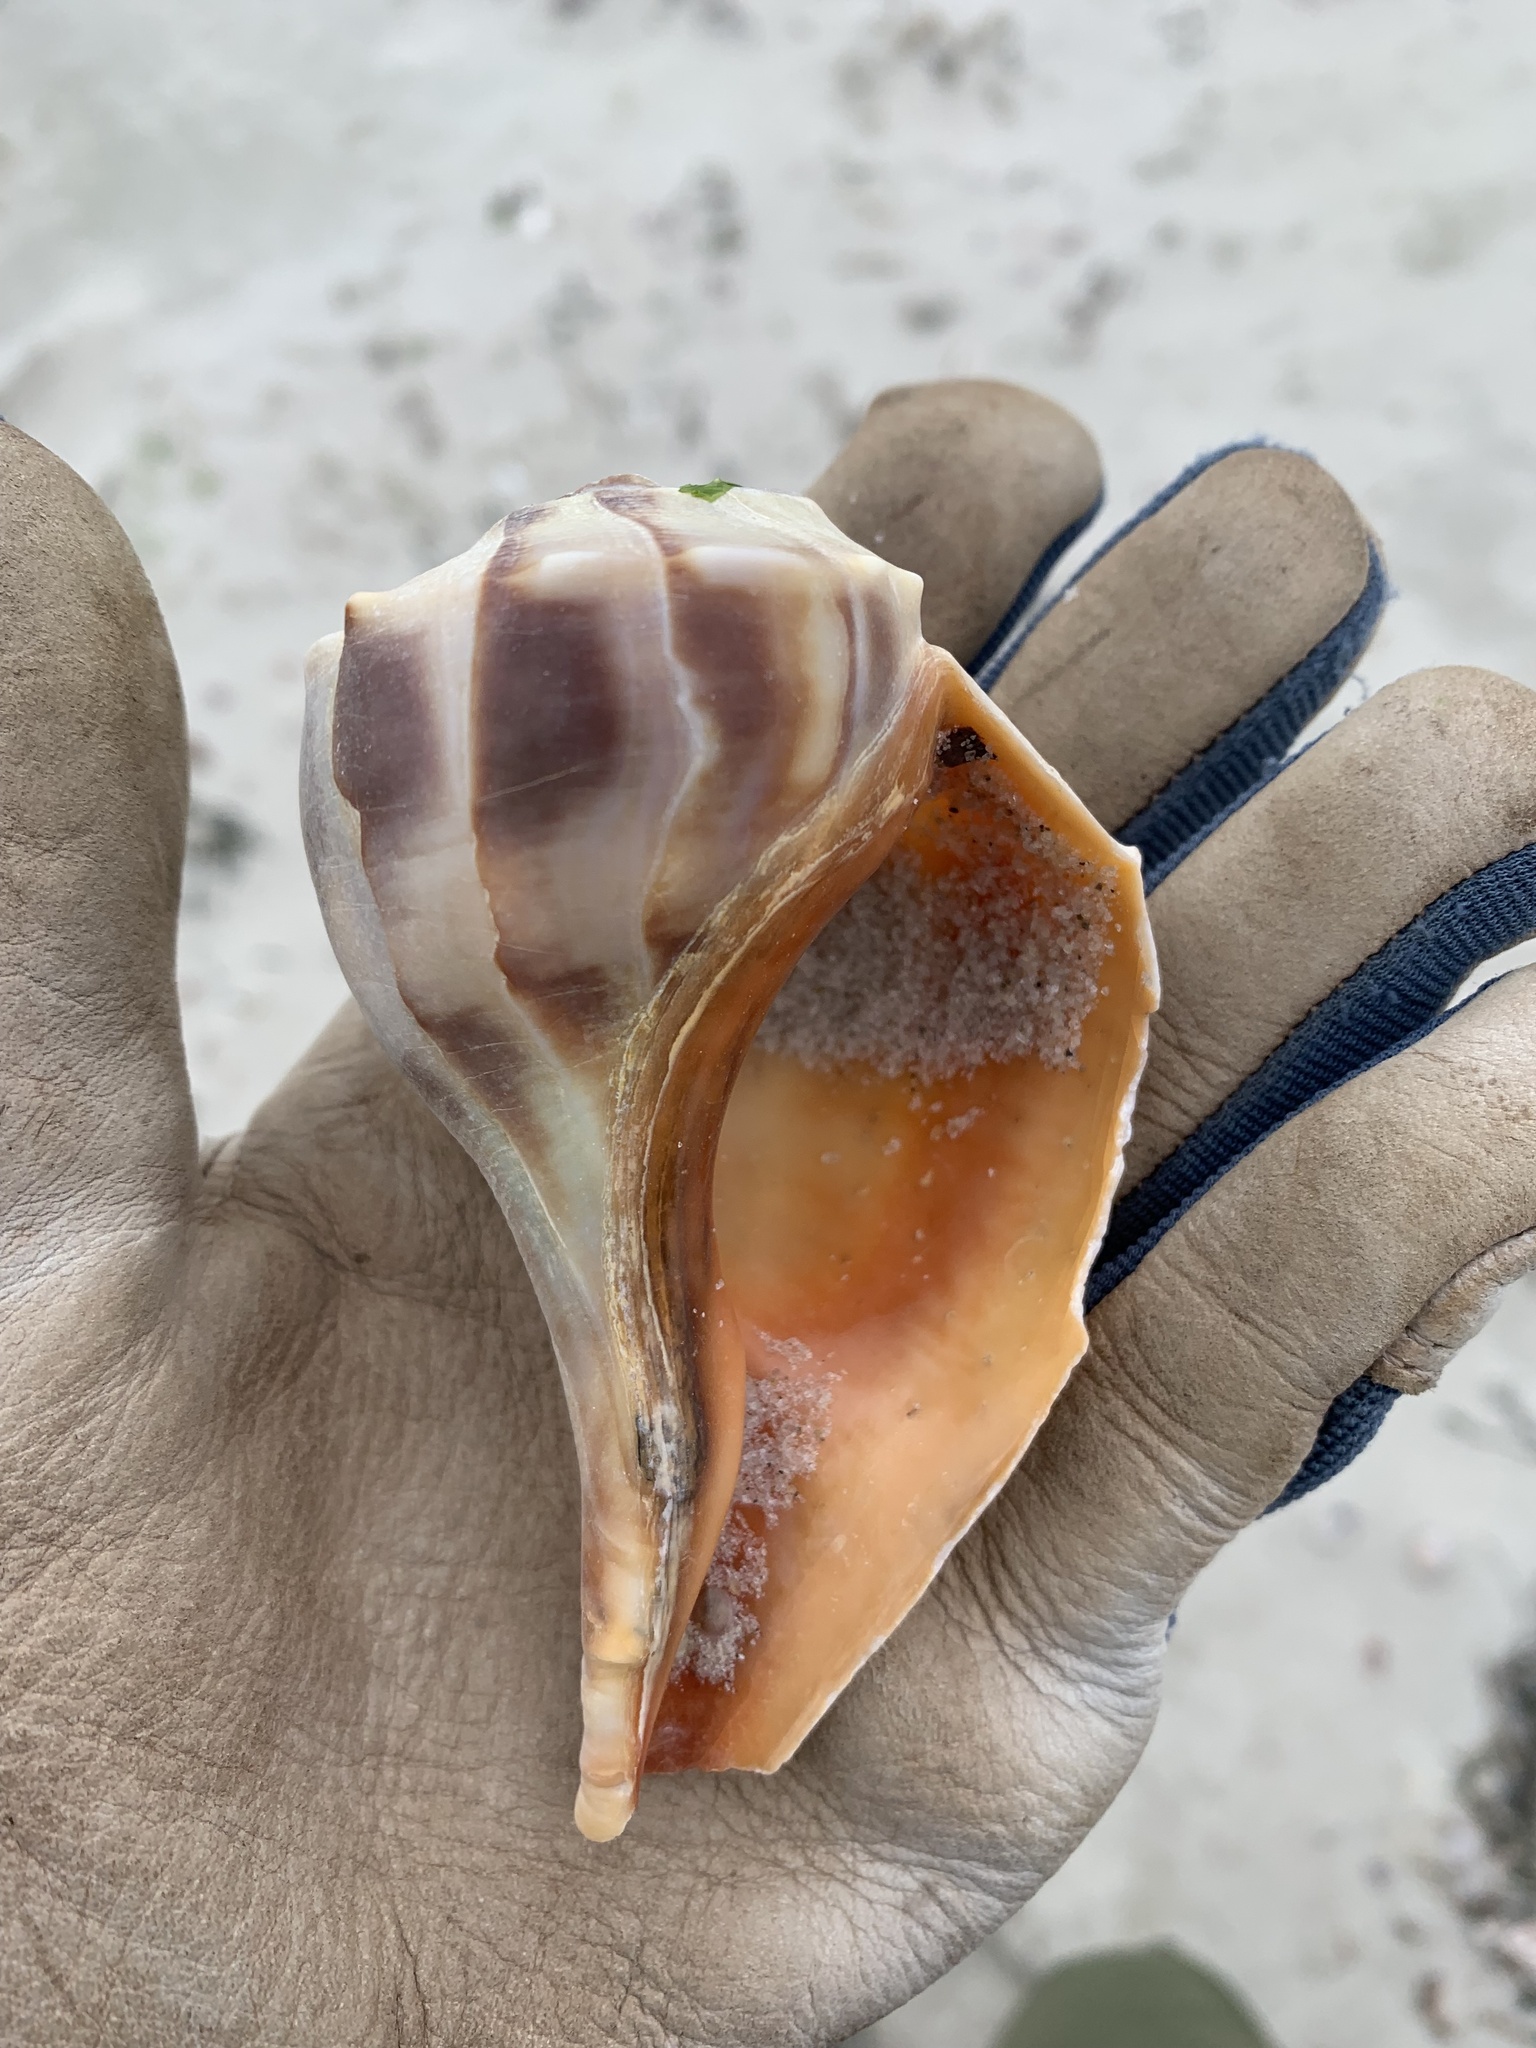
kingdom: Animalia
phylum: Mollusca
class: Gastropoda
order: Neogastropoda
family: Busyconidae
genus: Busycon
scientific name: Busycon carica
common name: Knobbed whelk
